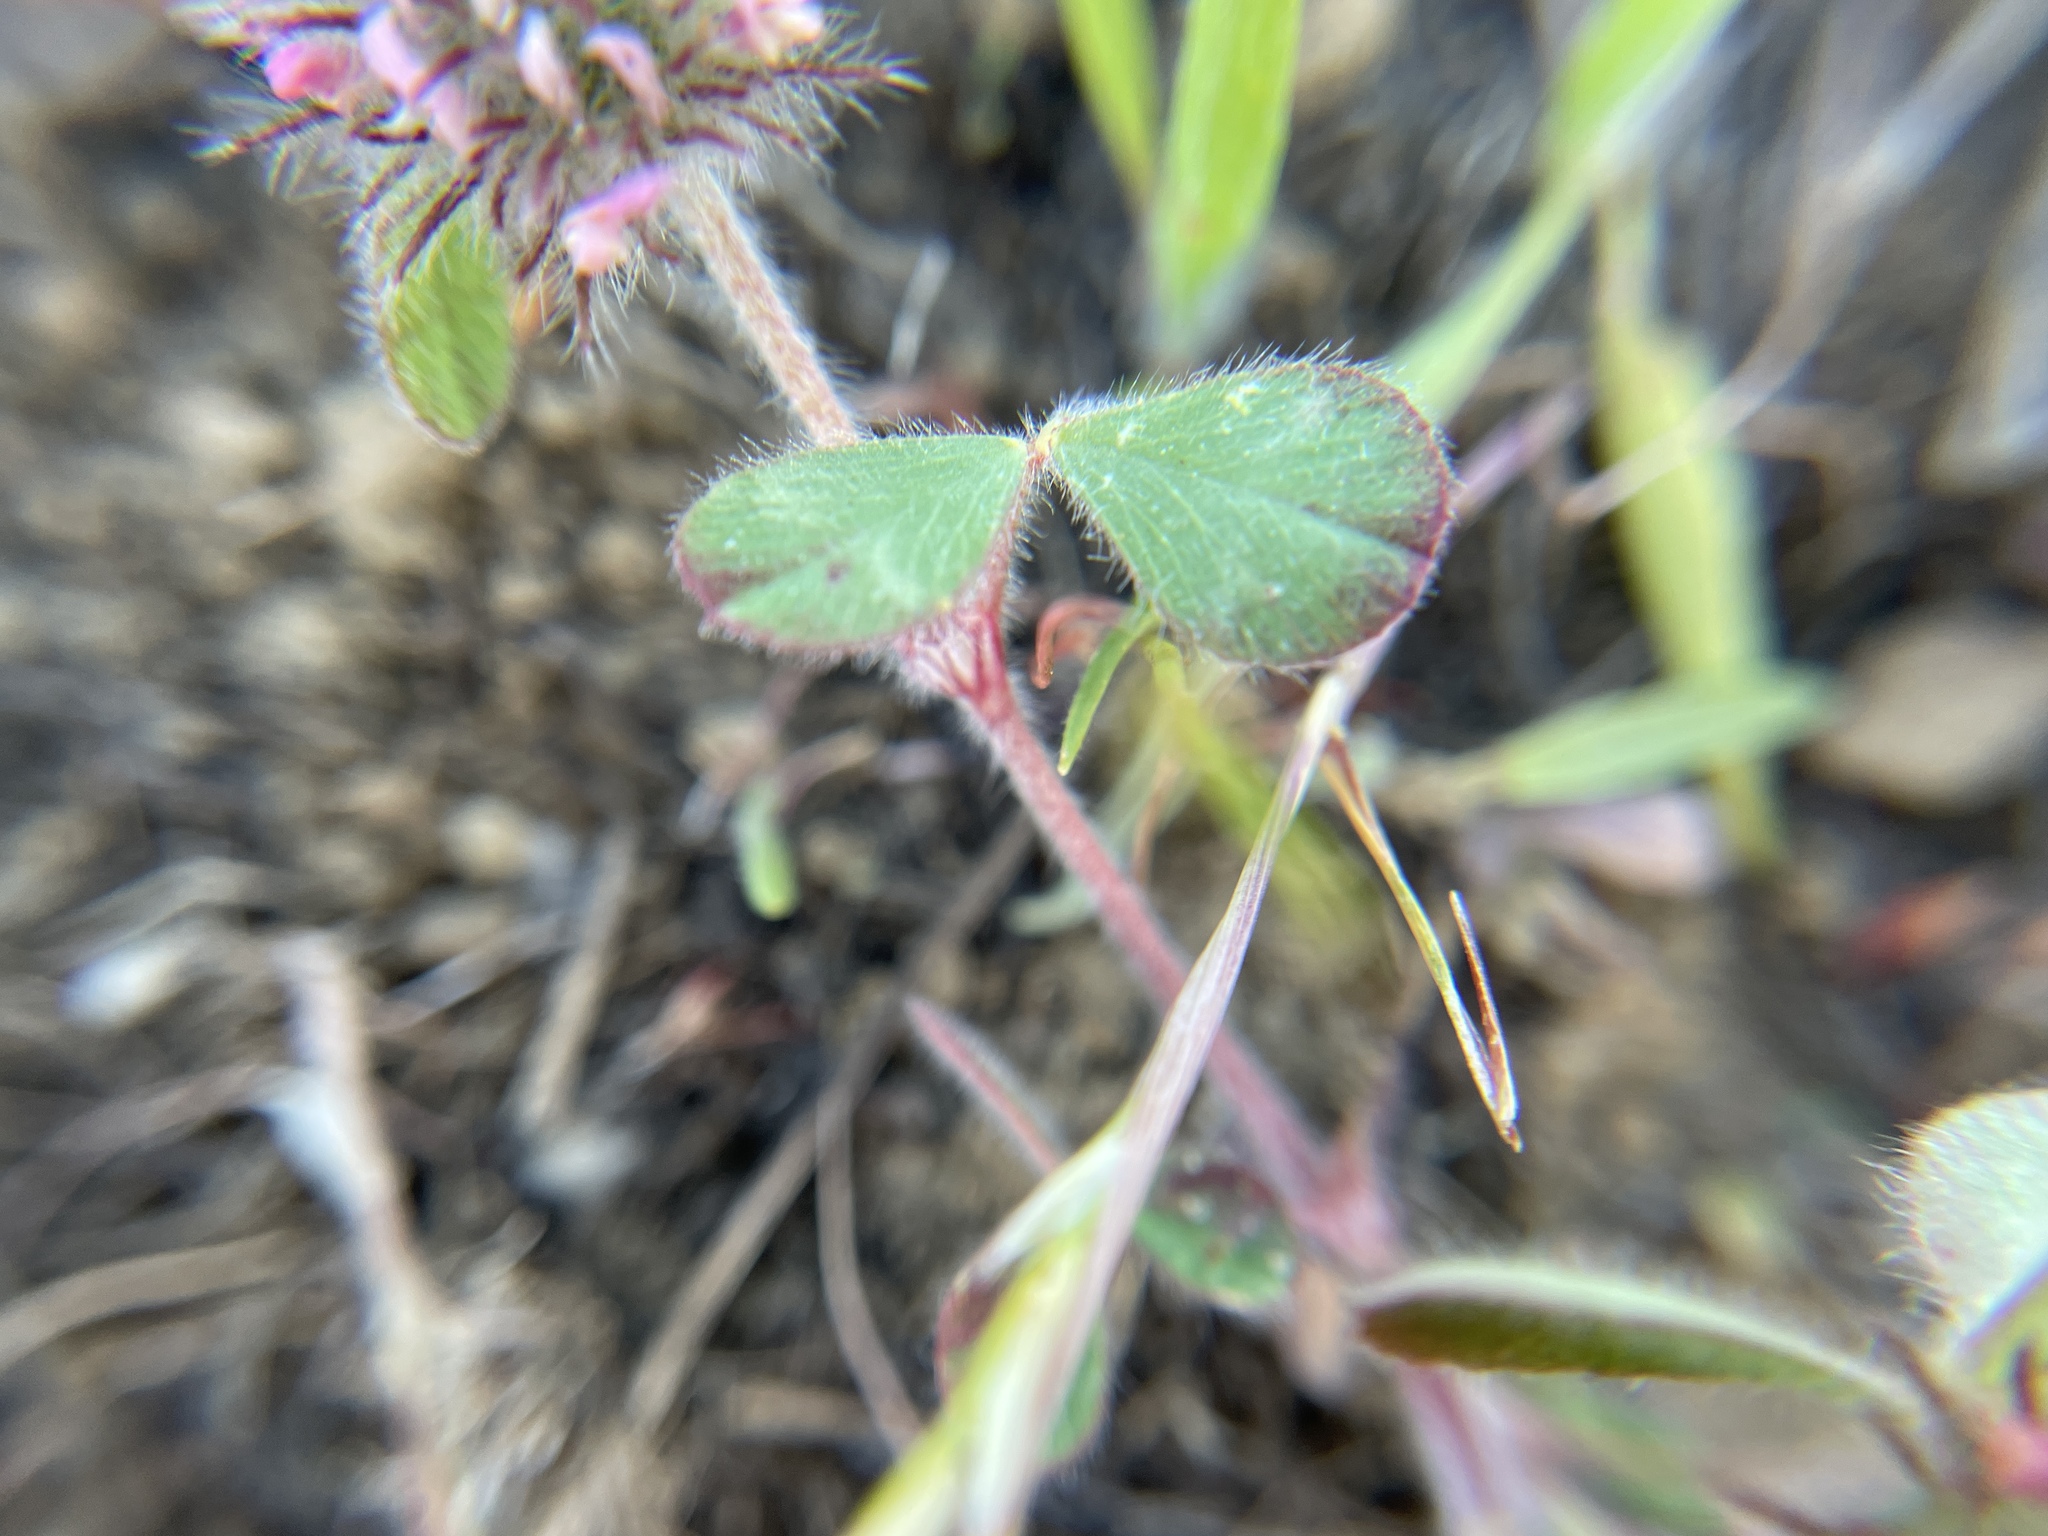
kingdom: Plantae
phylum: Tracheophyta
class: Magnoliopsida
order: Fabales
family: Fabaceae
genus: Trifolium
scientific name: Trifolium hirtum
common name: Rose clover
